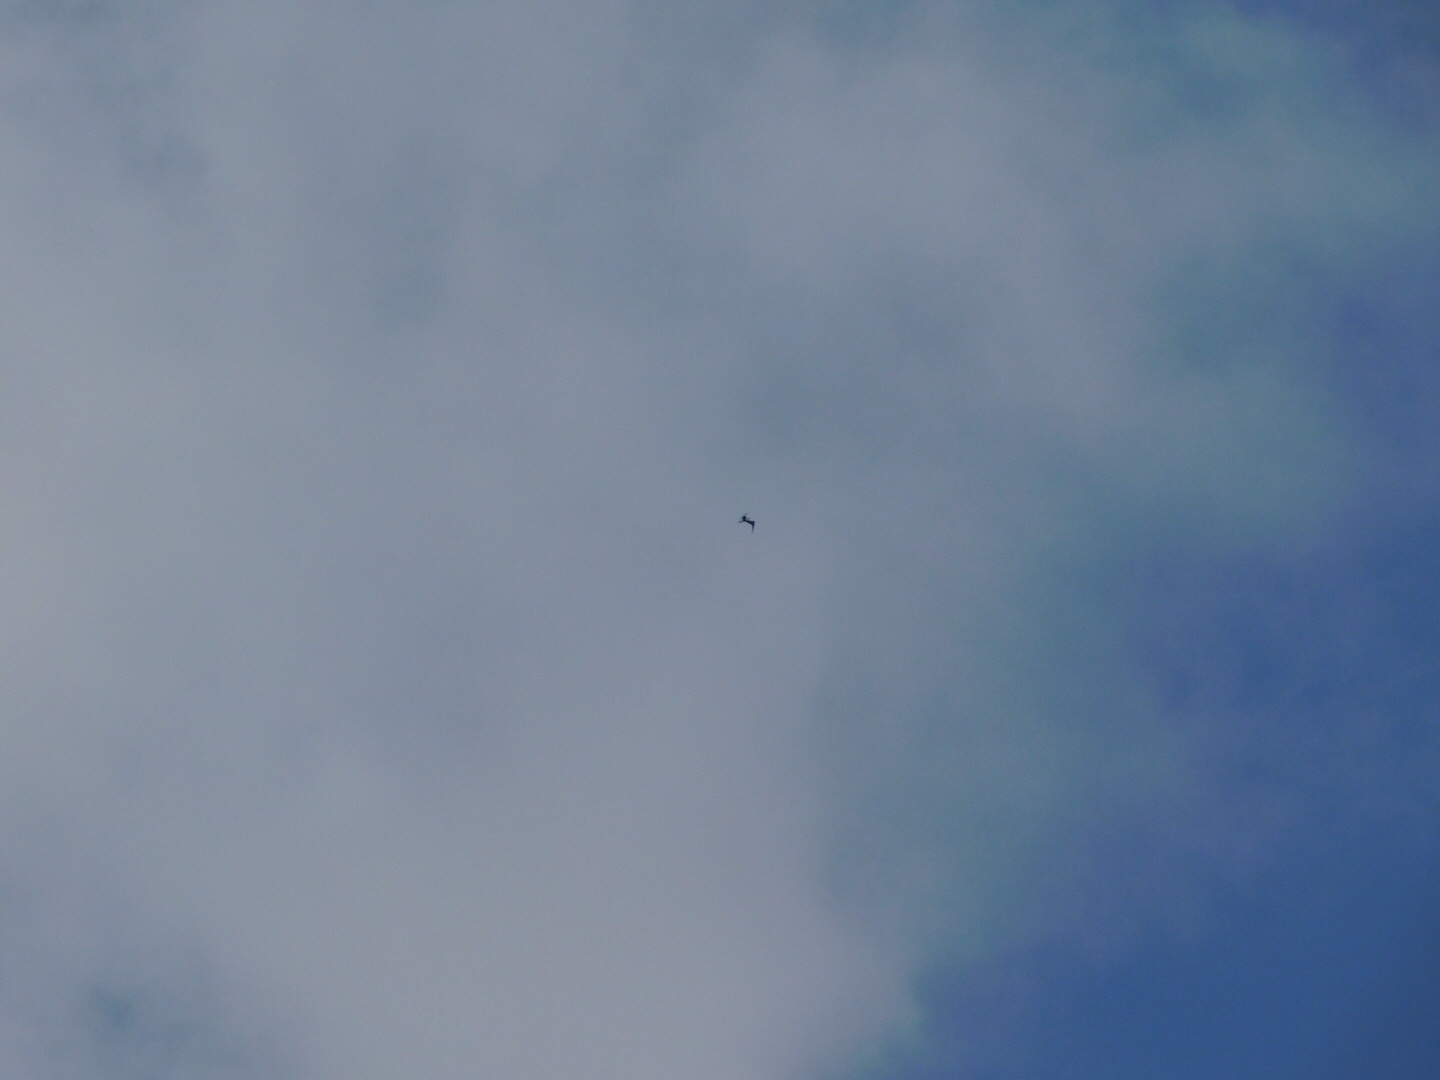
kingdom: Animalia
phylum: Chordata
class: Aves
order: Suliformes
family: Fregatidae
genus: Fregata
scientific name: Fregata magnificens
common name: Magnificent frigatebird
